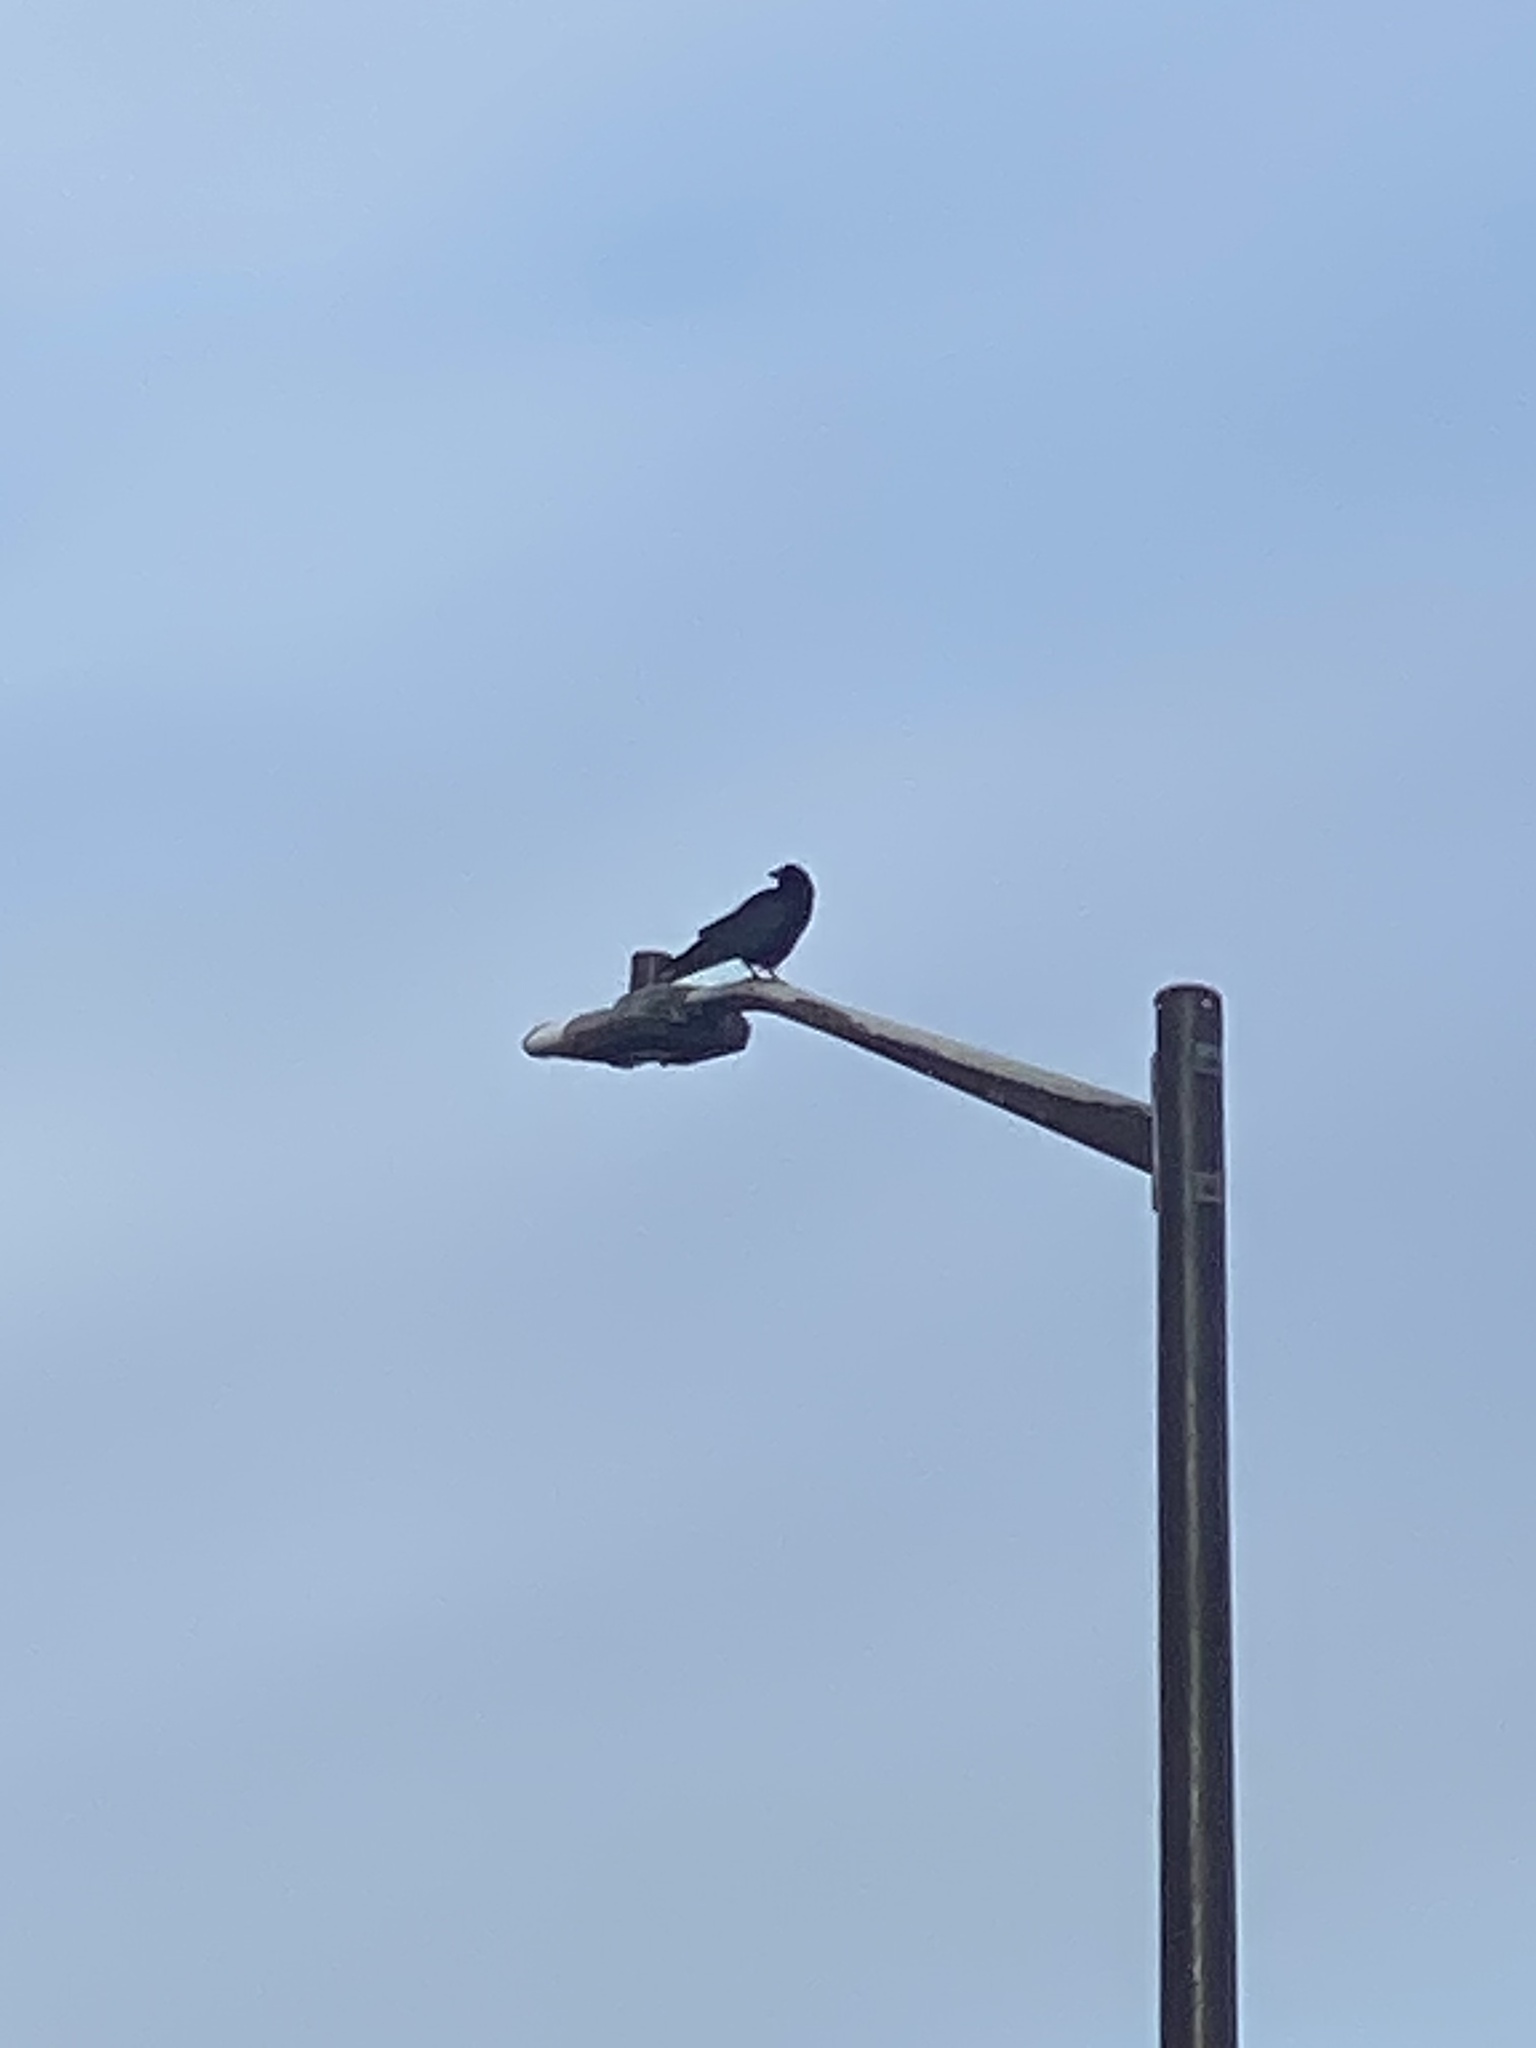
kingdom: Animalia
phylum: Chordata
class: Aves
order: Passeriformes
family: Corvidae
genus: Corvus
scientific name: Corvus brachyrhynchos
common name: American crow
